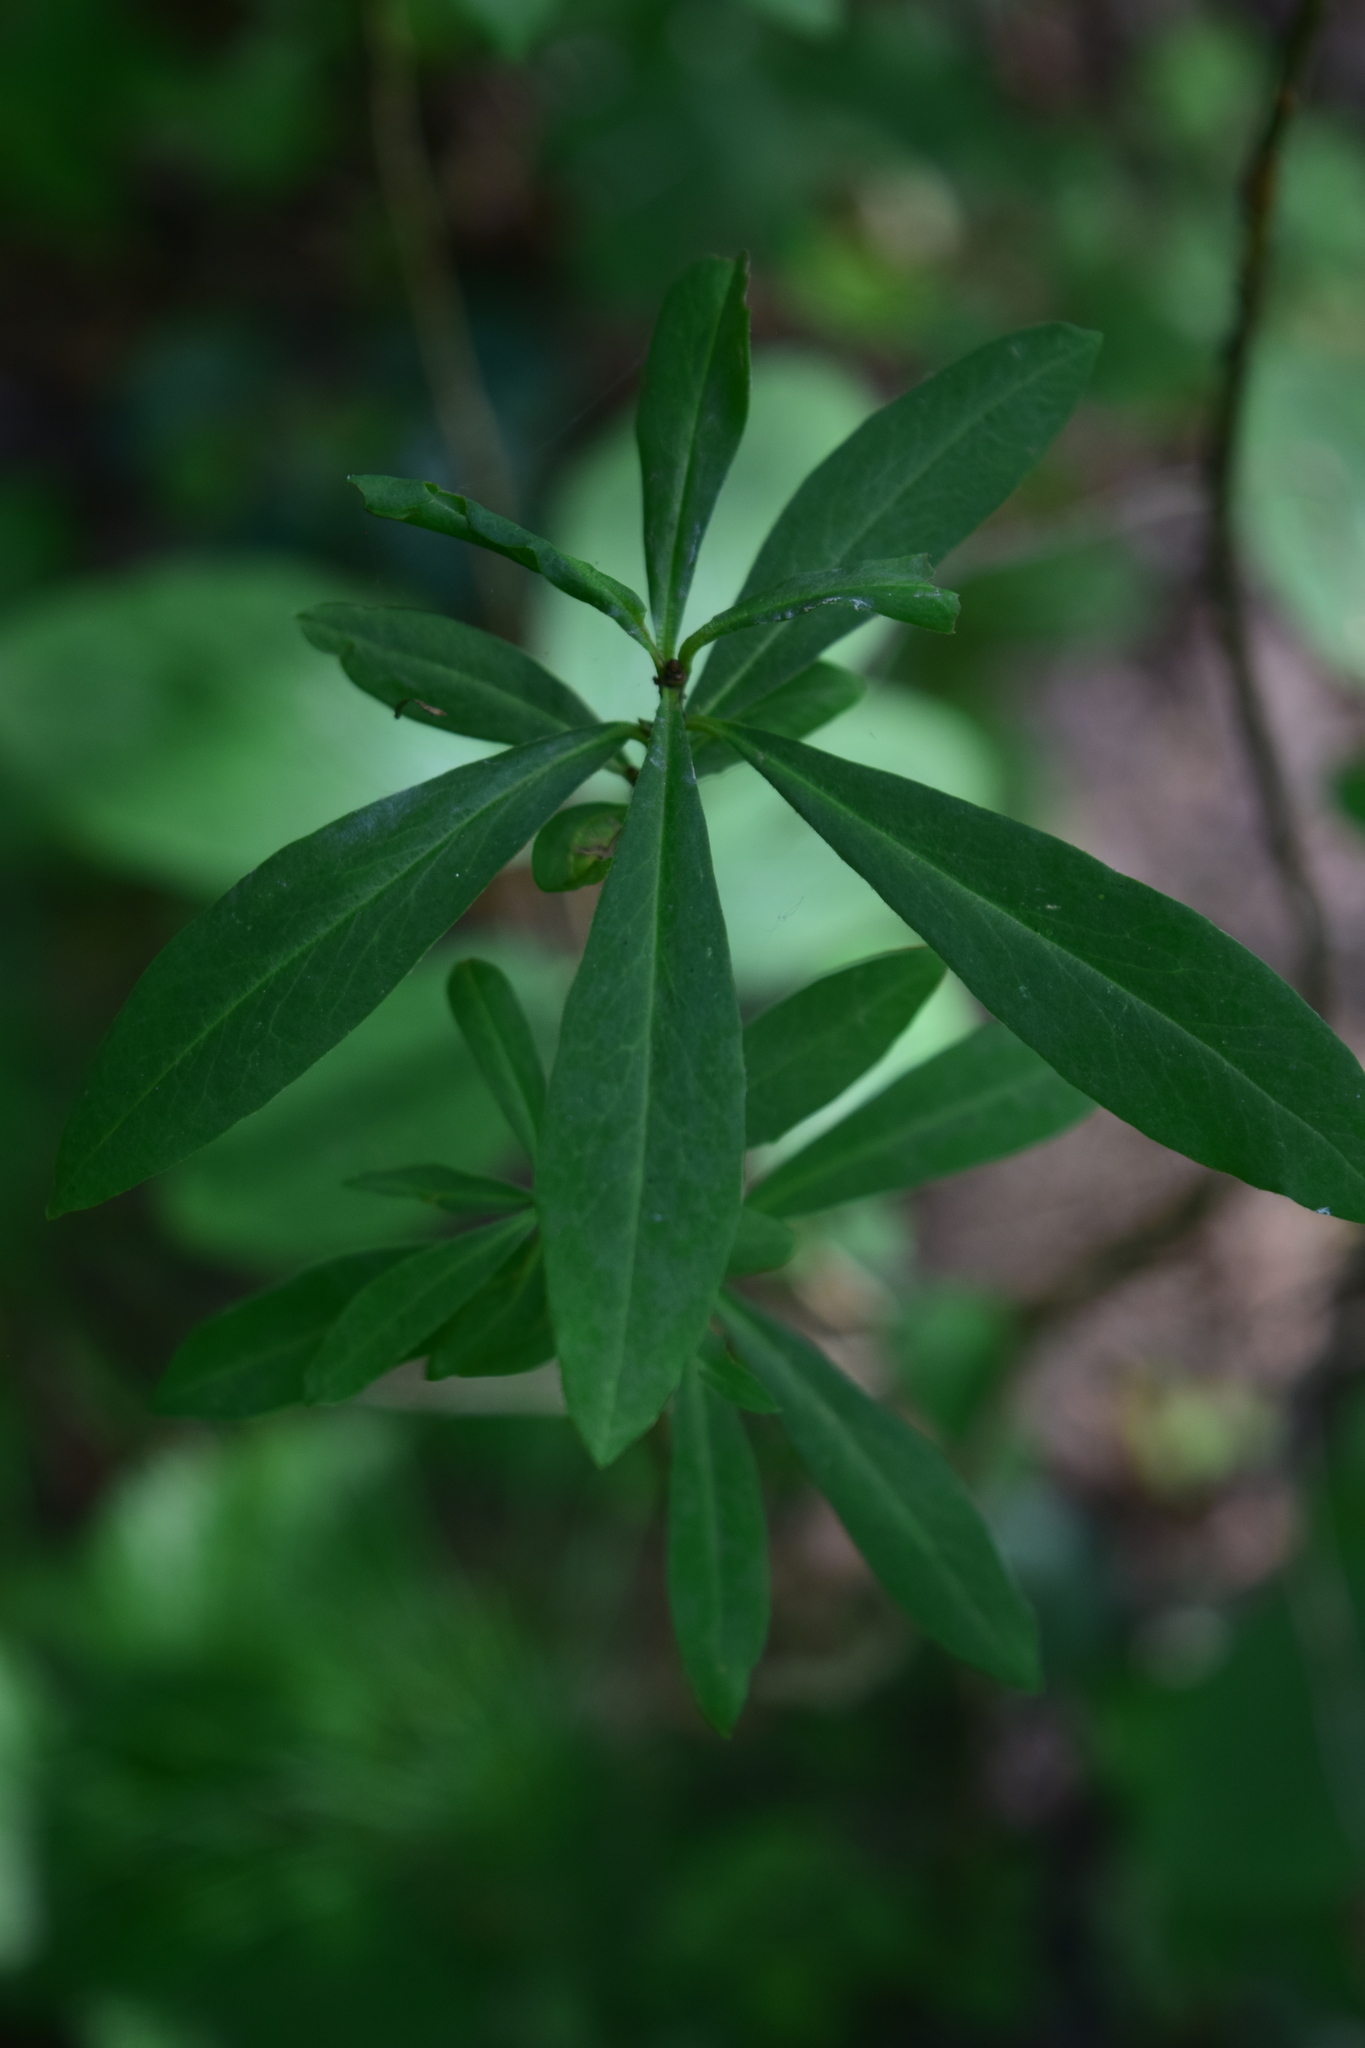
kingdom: Plantae
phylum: Tracheophyta
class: Magnoliopsida
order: Malvales
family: Thymelaeaceae
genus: Daphne
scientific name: Daphne mezereum
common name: Mezereon
